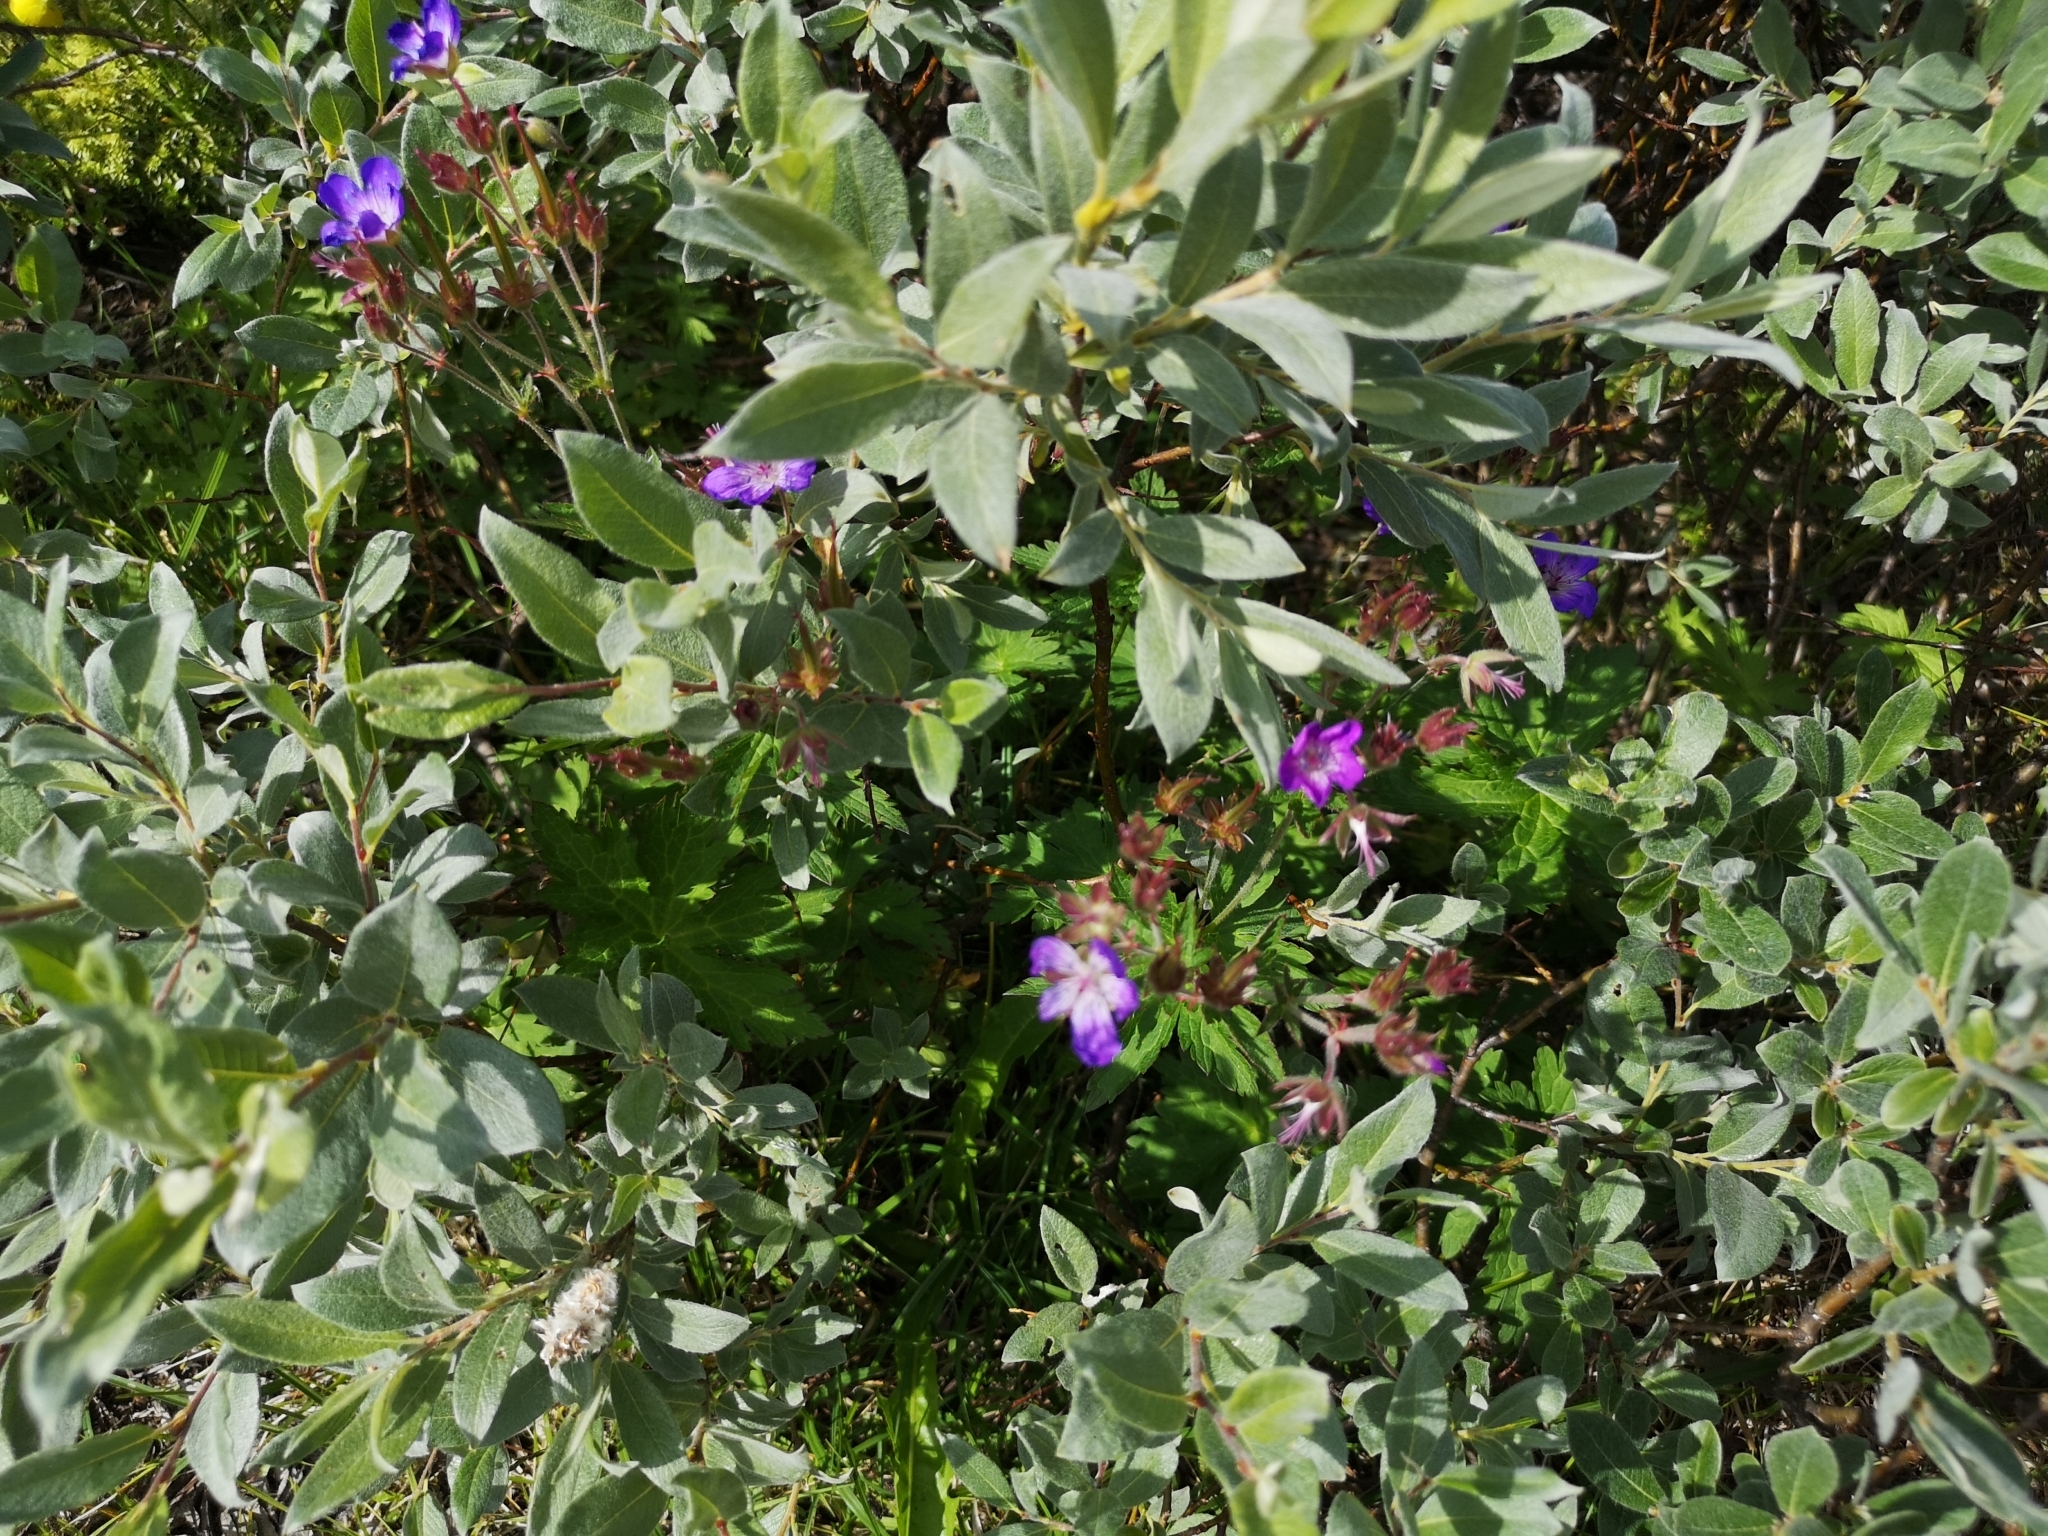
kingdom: Plantae
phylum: Tracheophyta
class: Magnoliopsida
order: Geraniales
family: Geraniaceae
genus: Geranium
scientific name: Geranium sylvaticum
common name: Wood crane's-bill
